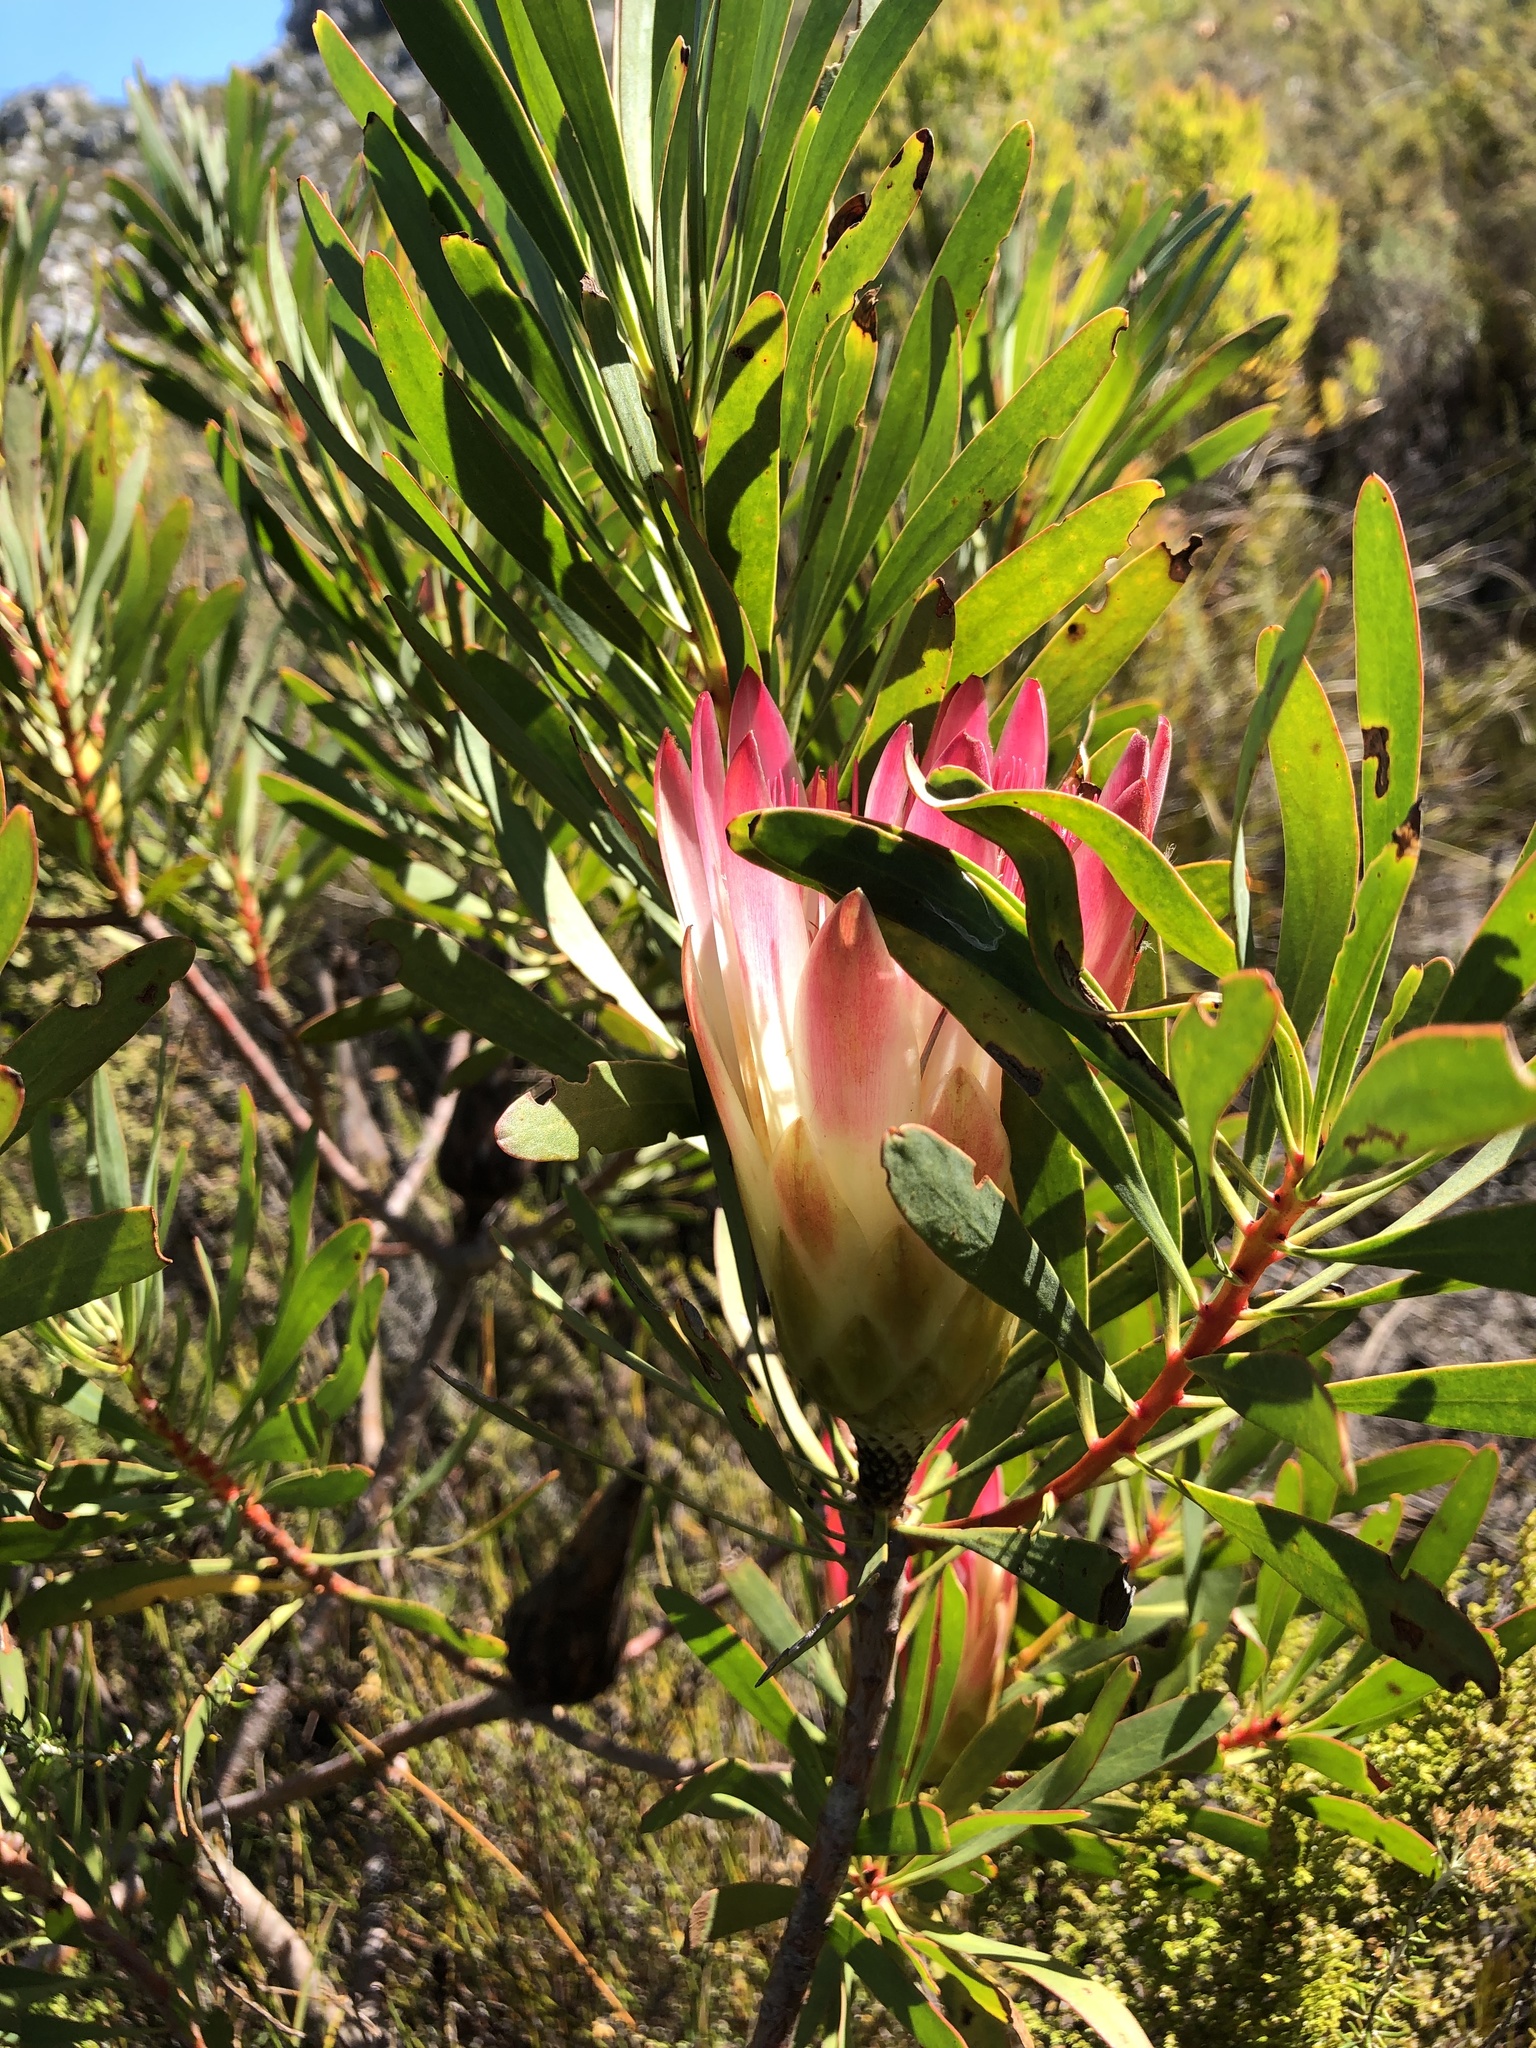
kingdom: Plantae
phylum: Tracheophyta
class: Magnoliopsida
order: Proteales
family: Proteaceae
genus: Protea
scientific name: Protea repens
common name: Sugarbush
